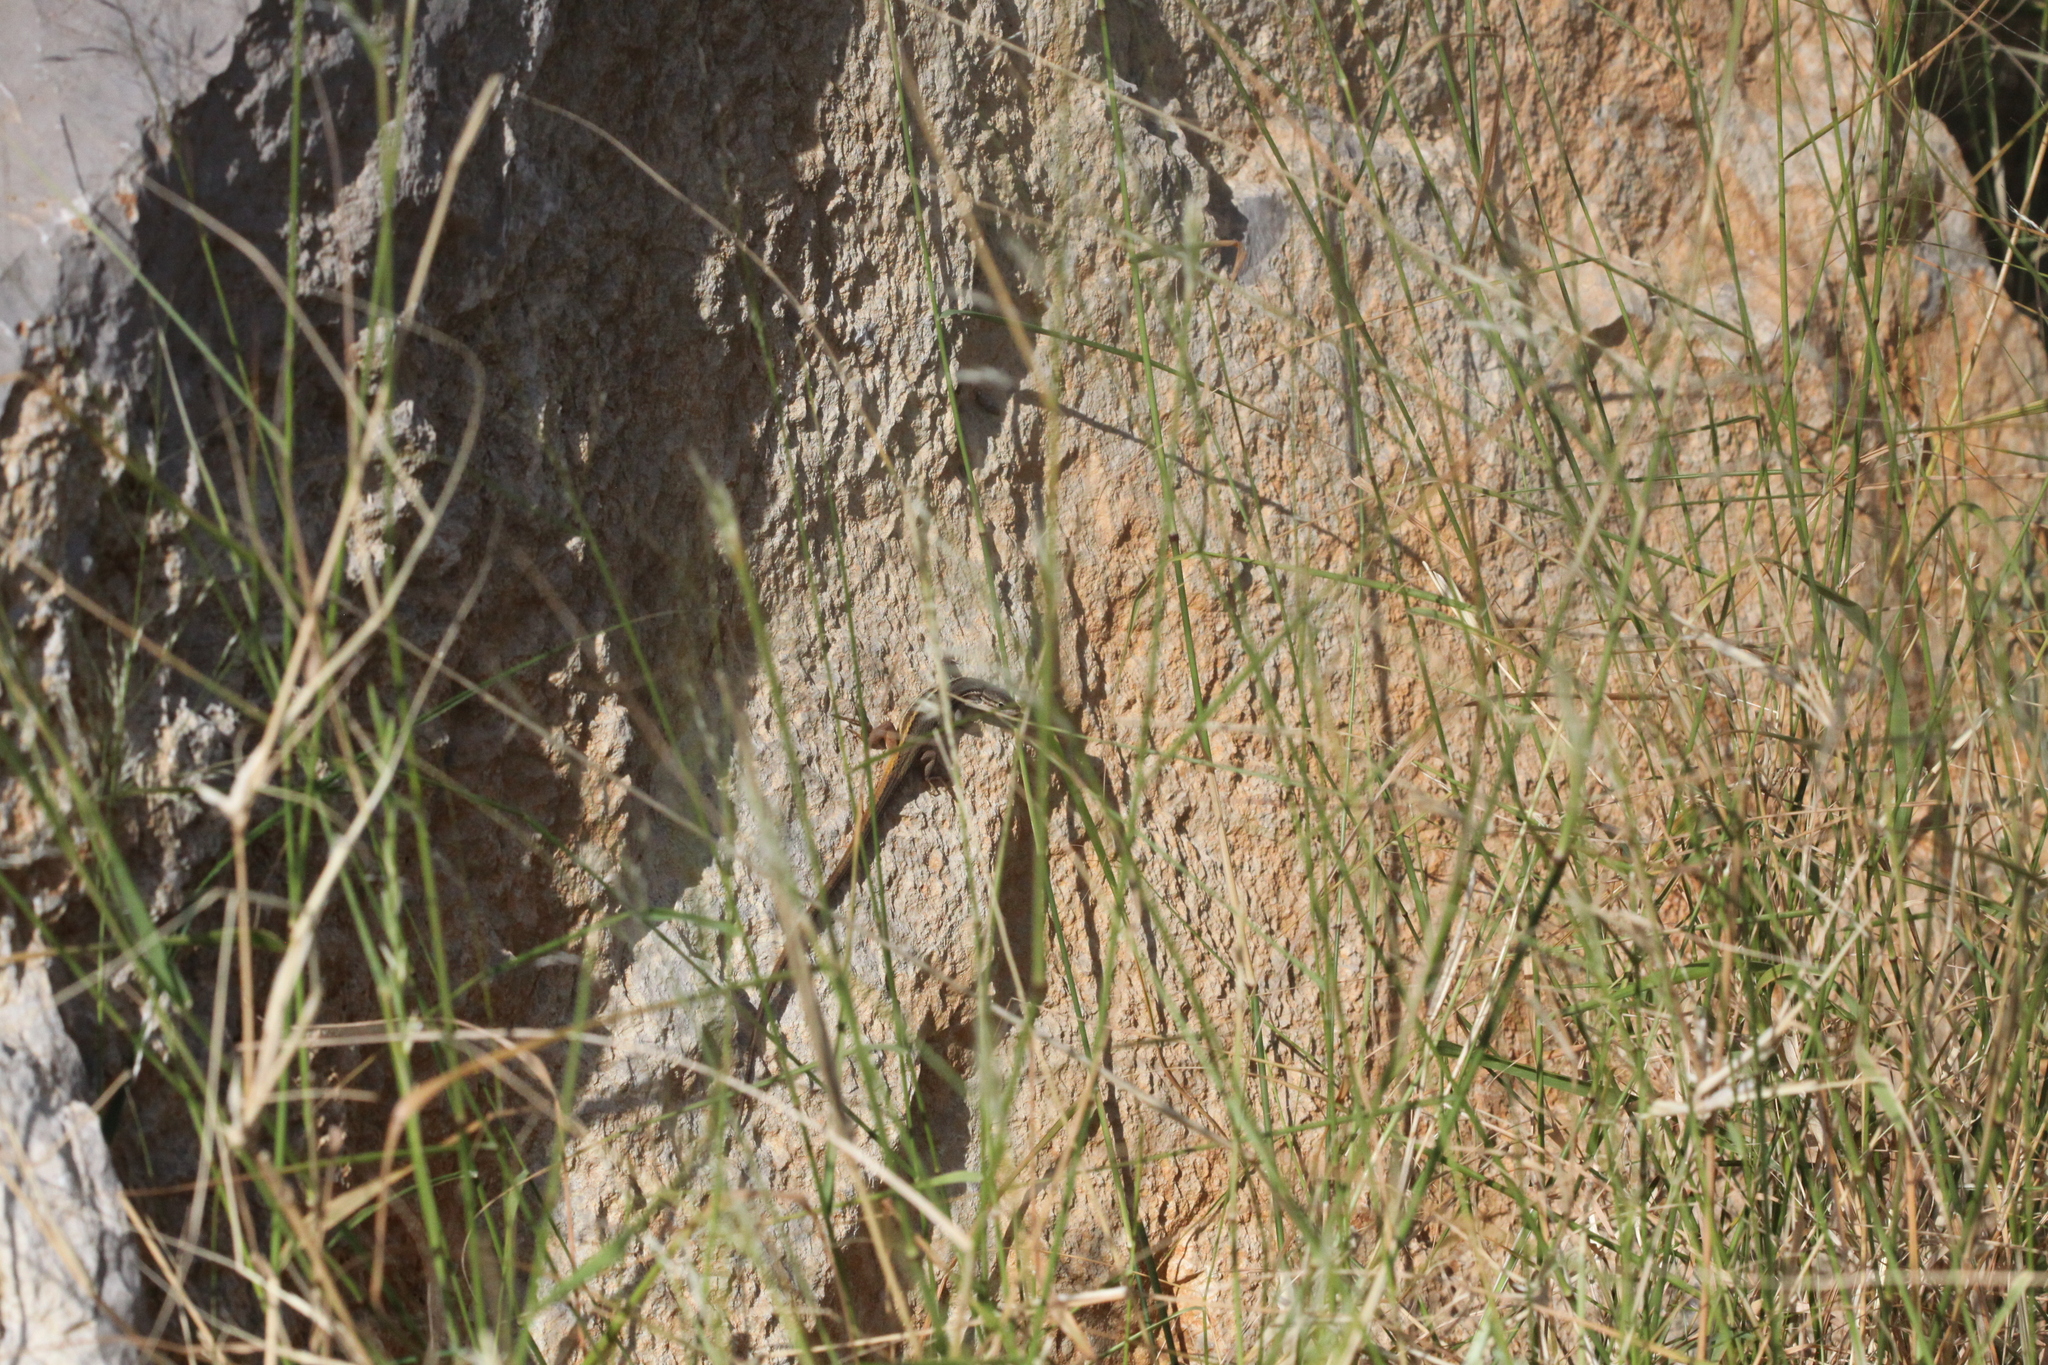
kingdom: Animalia
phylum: Chordata
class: Squamata
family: Lacertidae
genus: Psammodromus
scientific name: Psammodromus algirus
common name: Algerian psammodromus
